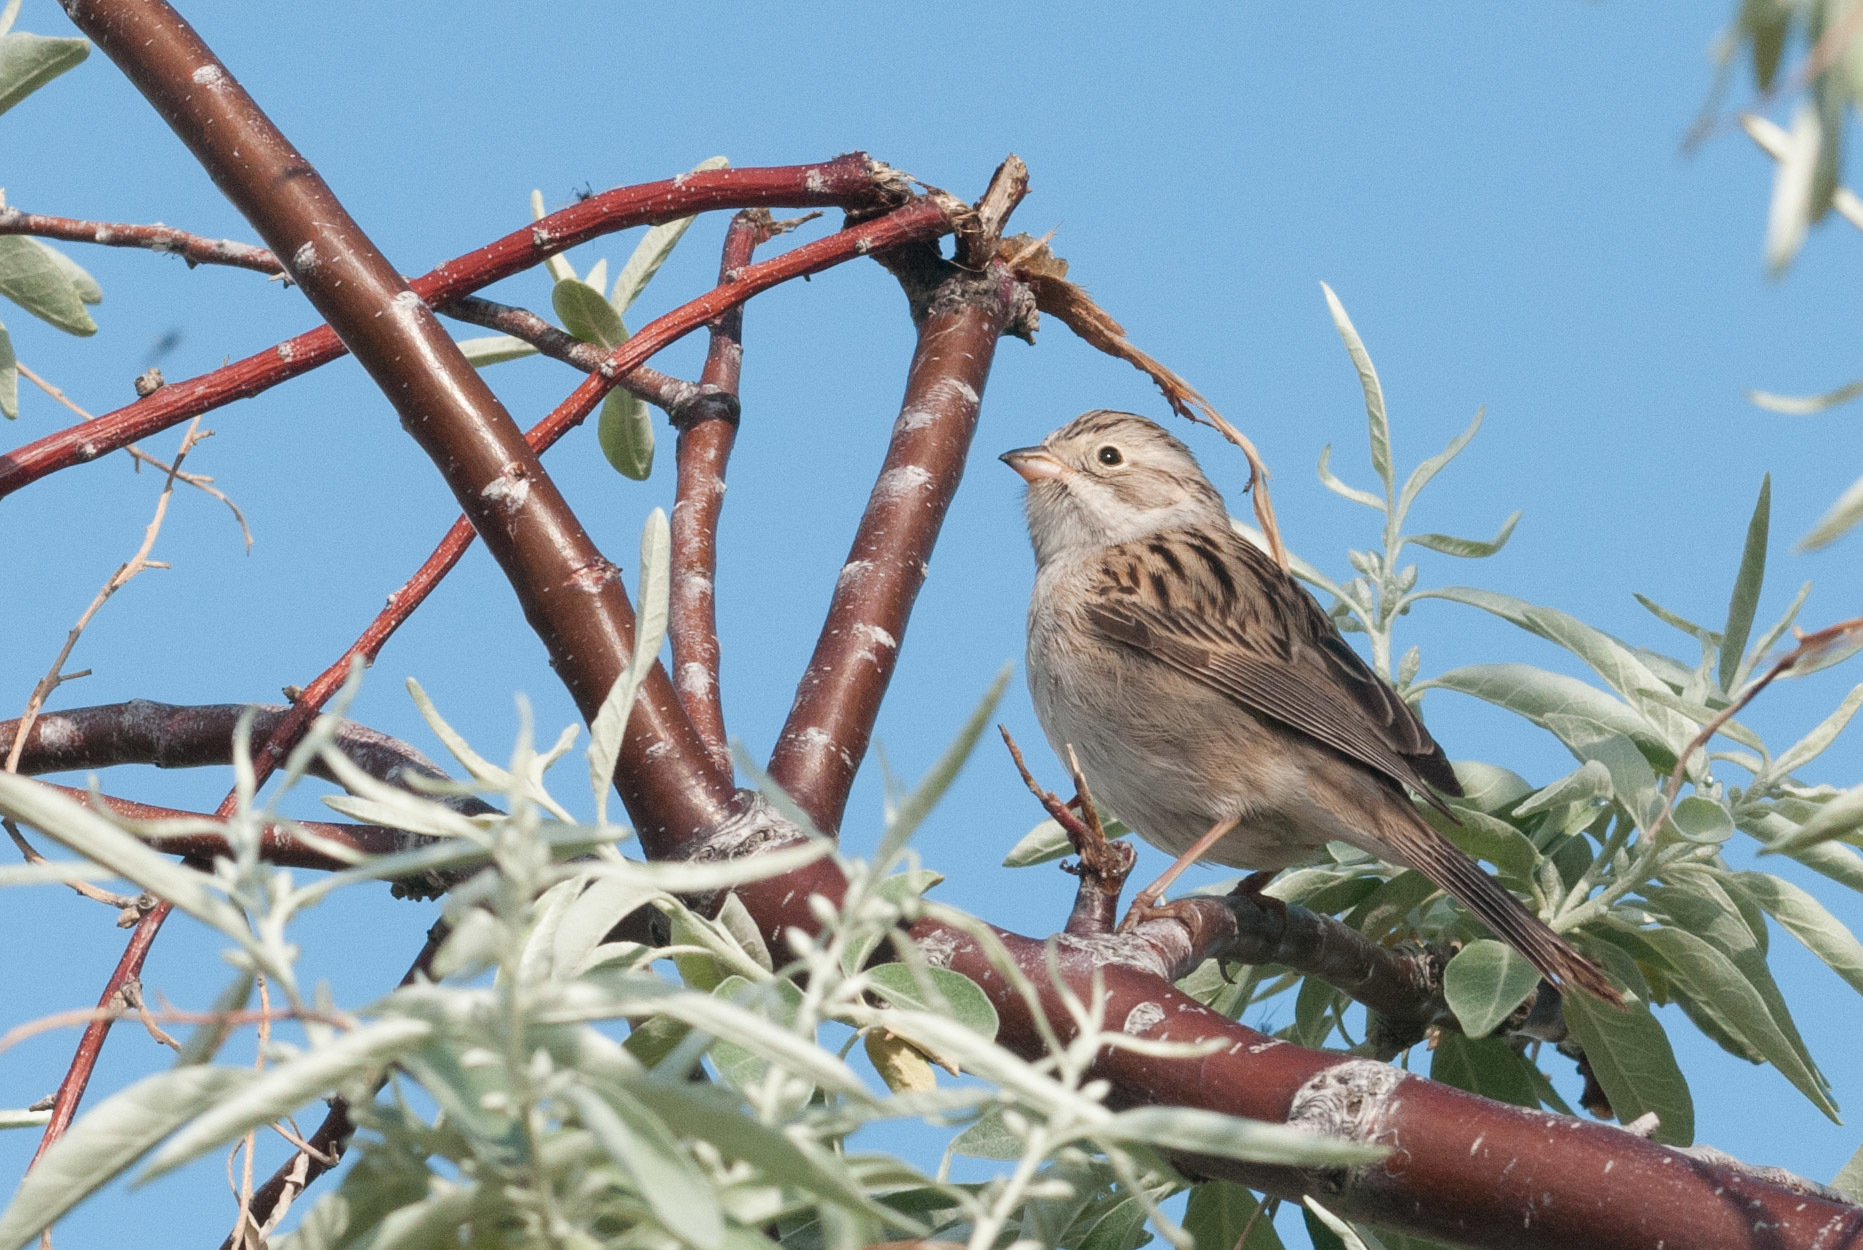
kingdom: Animalia
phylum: Chordata
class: Aves
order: Passeriformes
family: Passerellidae
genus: Spizella
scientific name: Spizella breweri
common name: Brewer's sparrow
